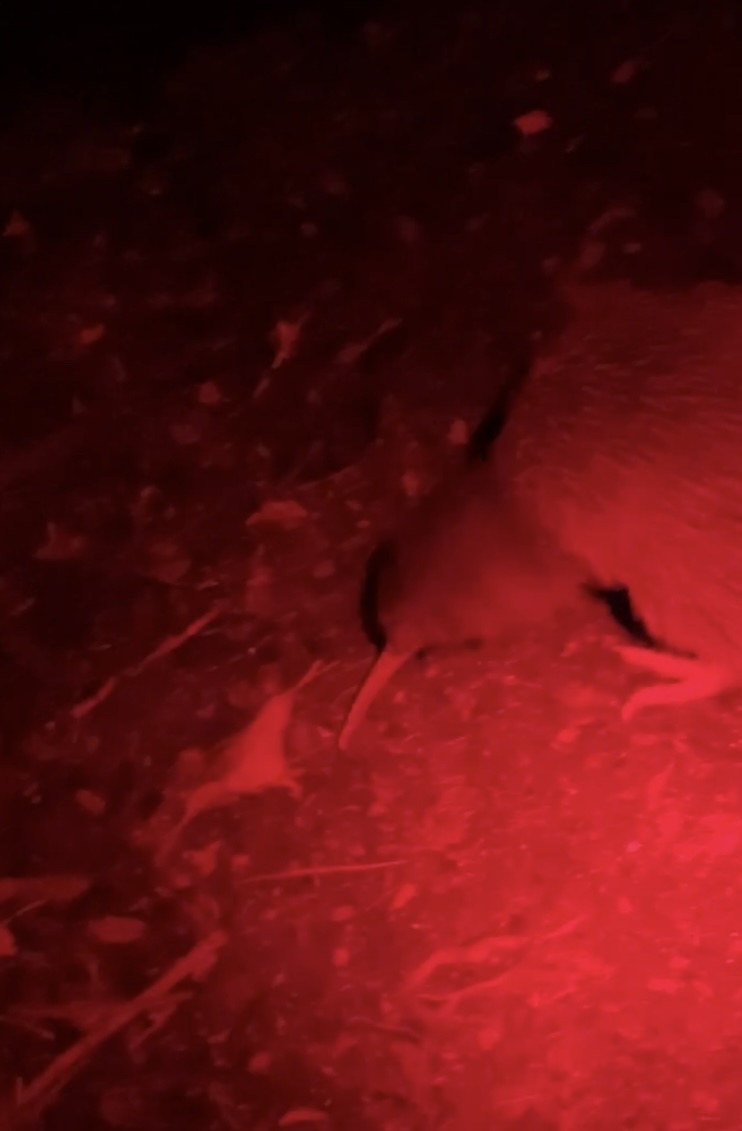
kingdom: Animalia
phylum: Chordata
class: Aves
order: Apterygiformes
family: Apterygidae
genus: Apteryx
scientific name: Apteryx australis
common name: Southern brown kiwi
